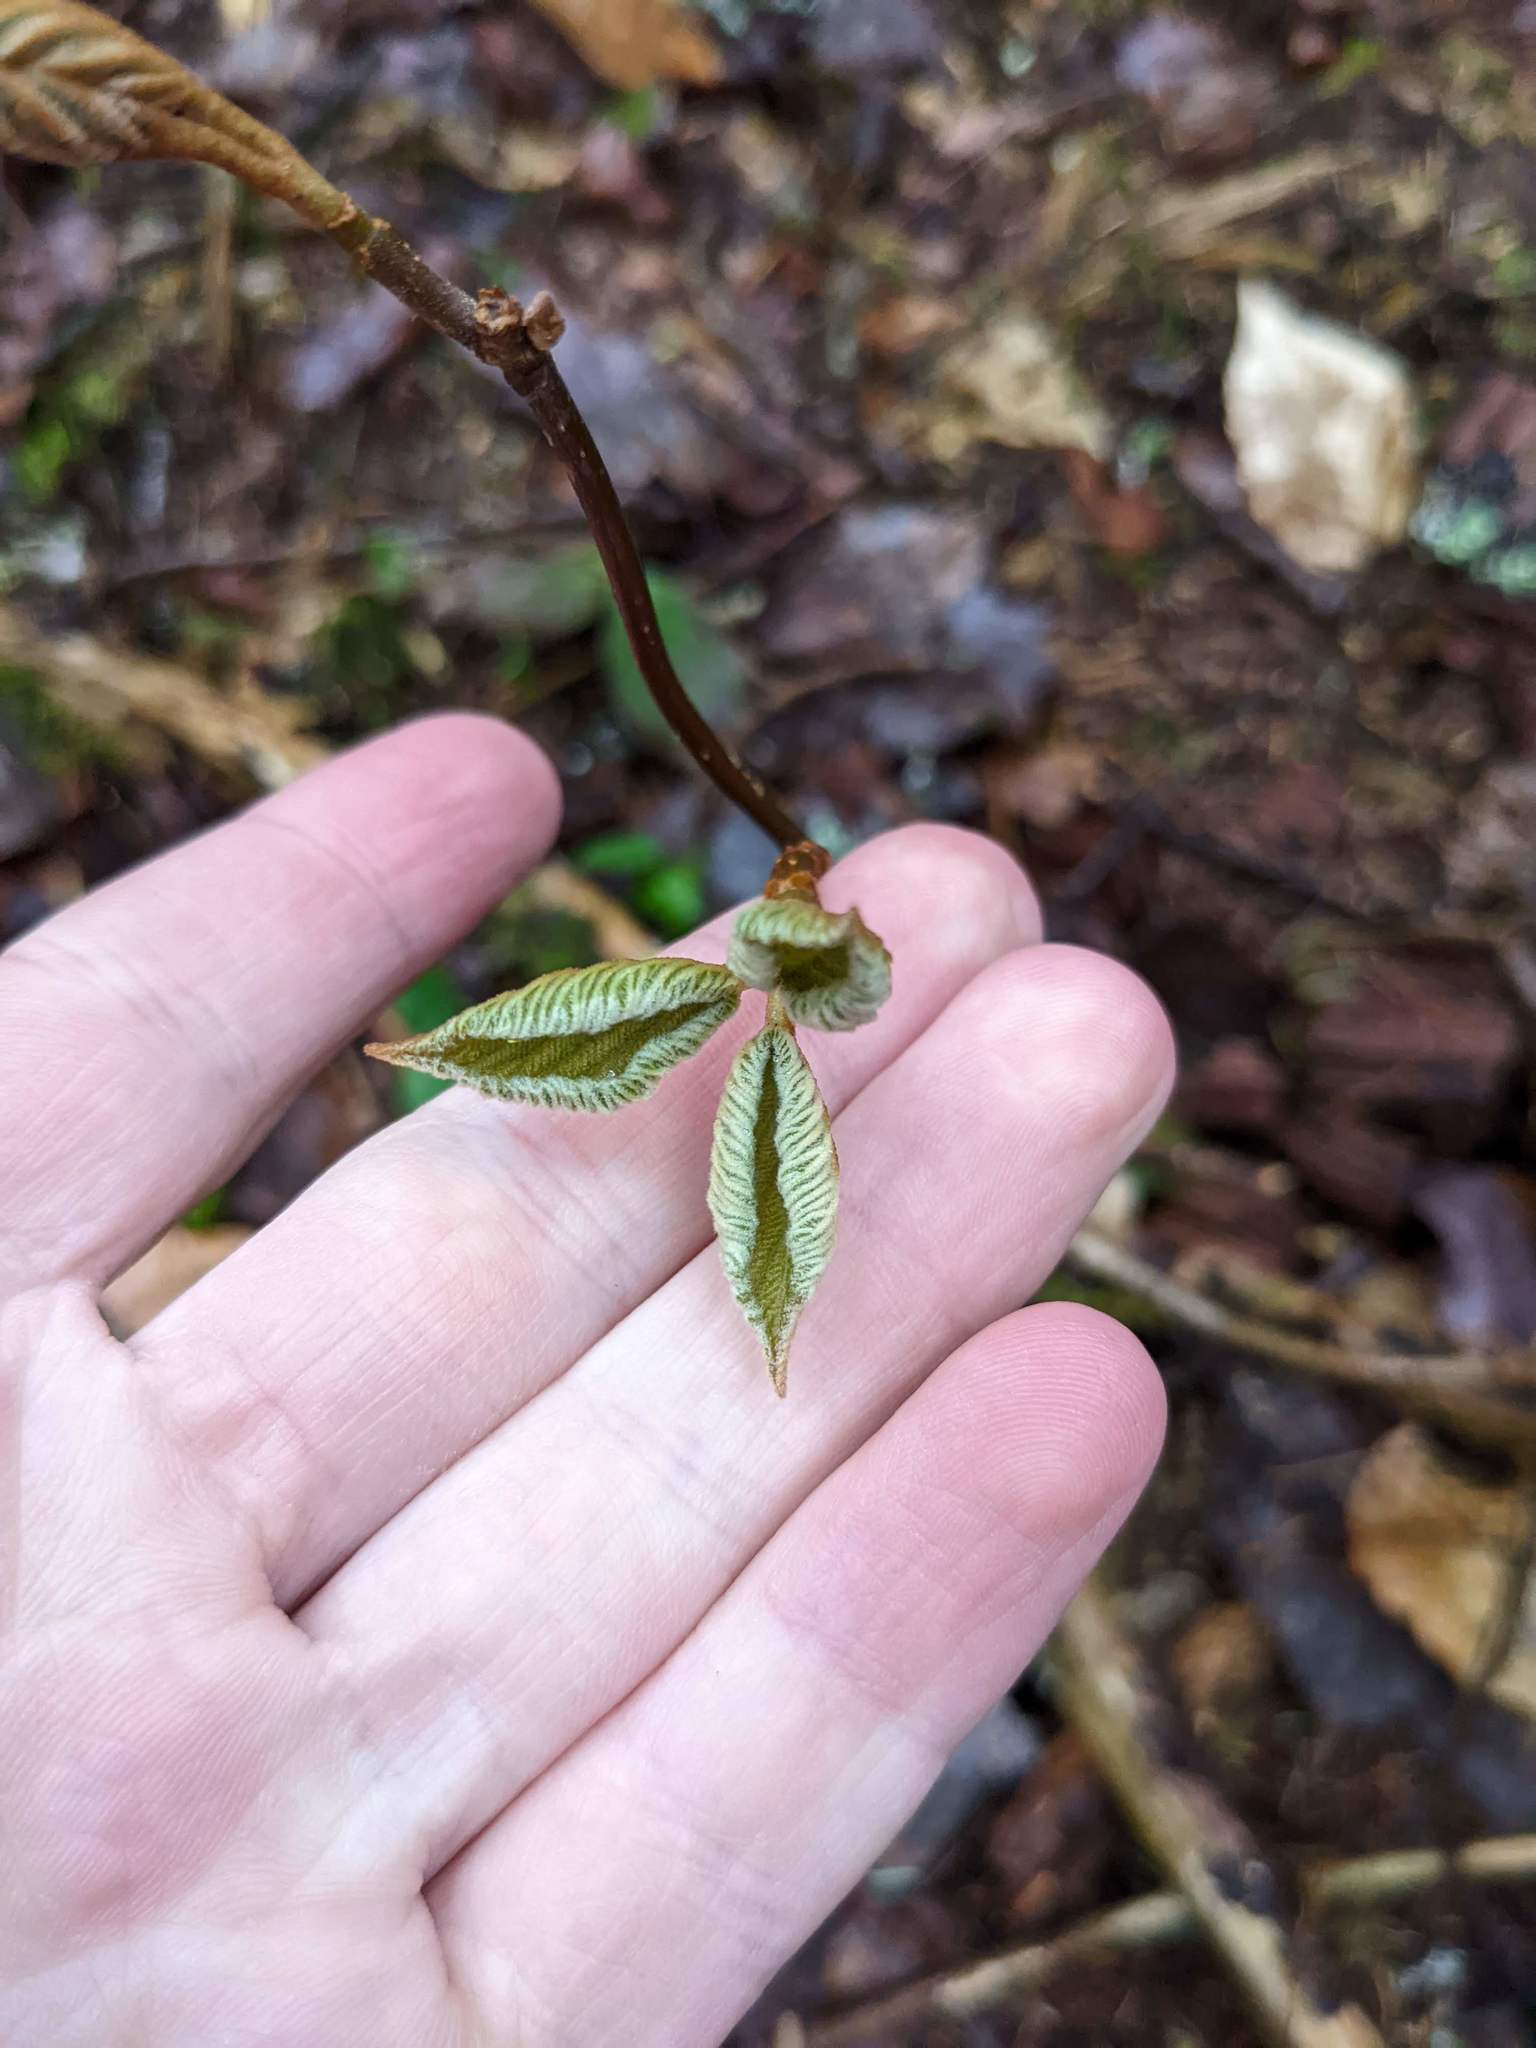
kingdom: Plantae
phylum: Tracheophyta
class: Magnoliopsida
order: Dipsacales
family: Viburnaceae
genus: Viburnum
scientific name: Viburnum lantanoides
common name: Hobblebush
